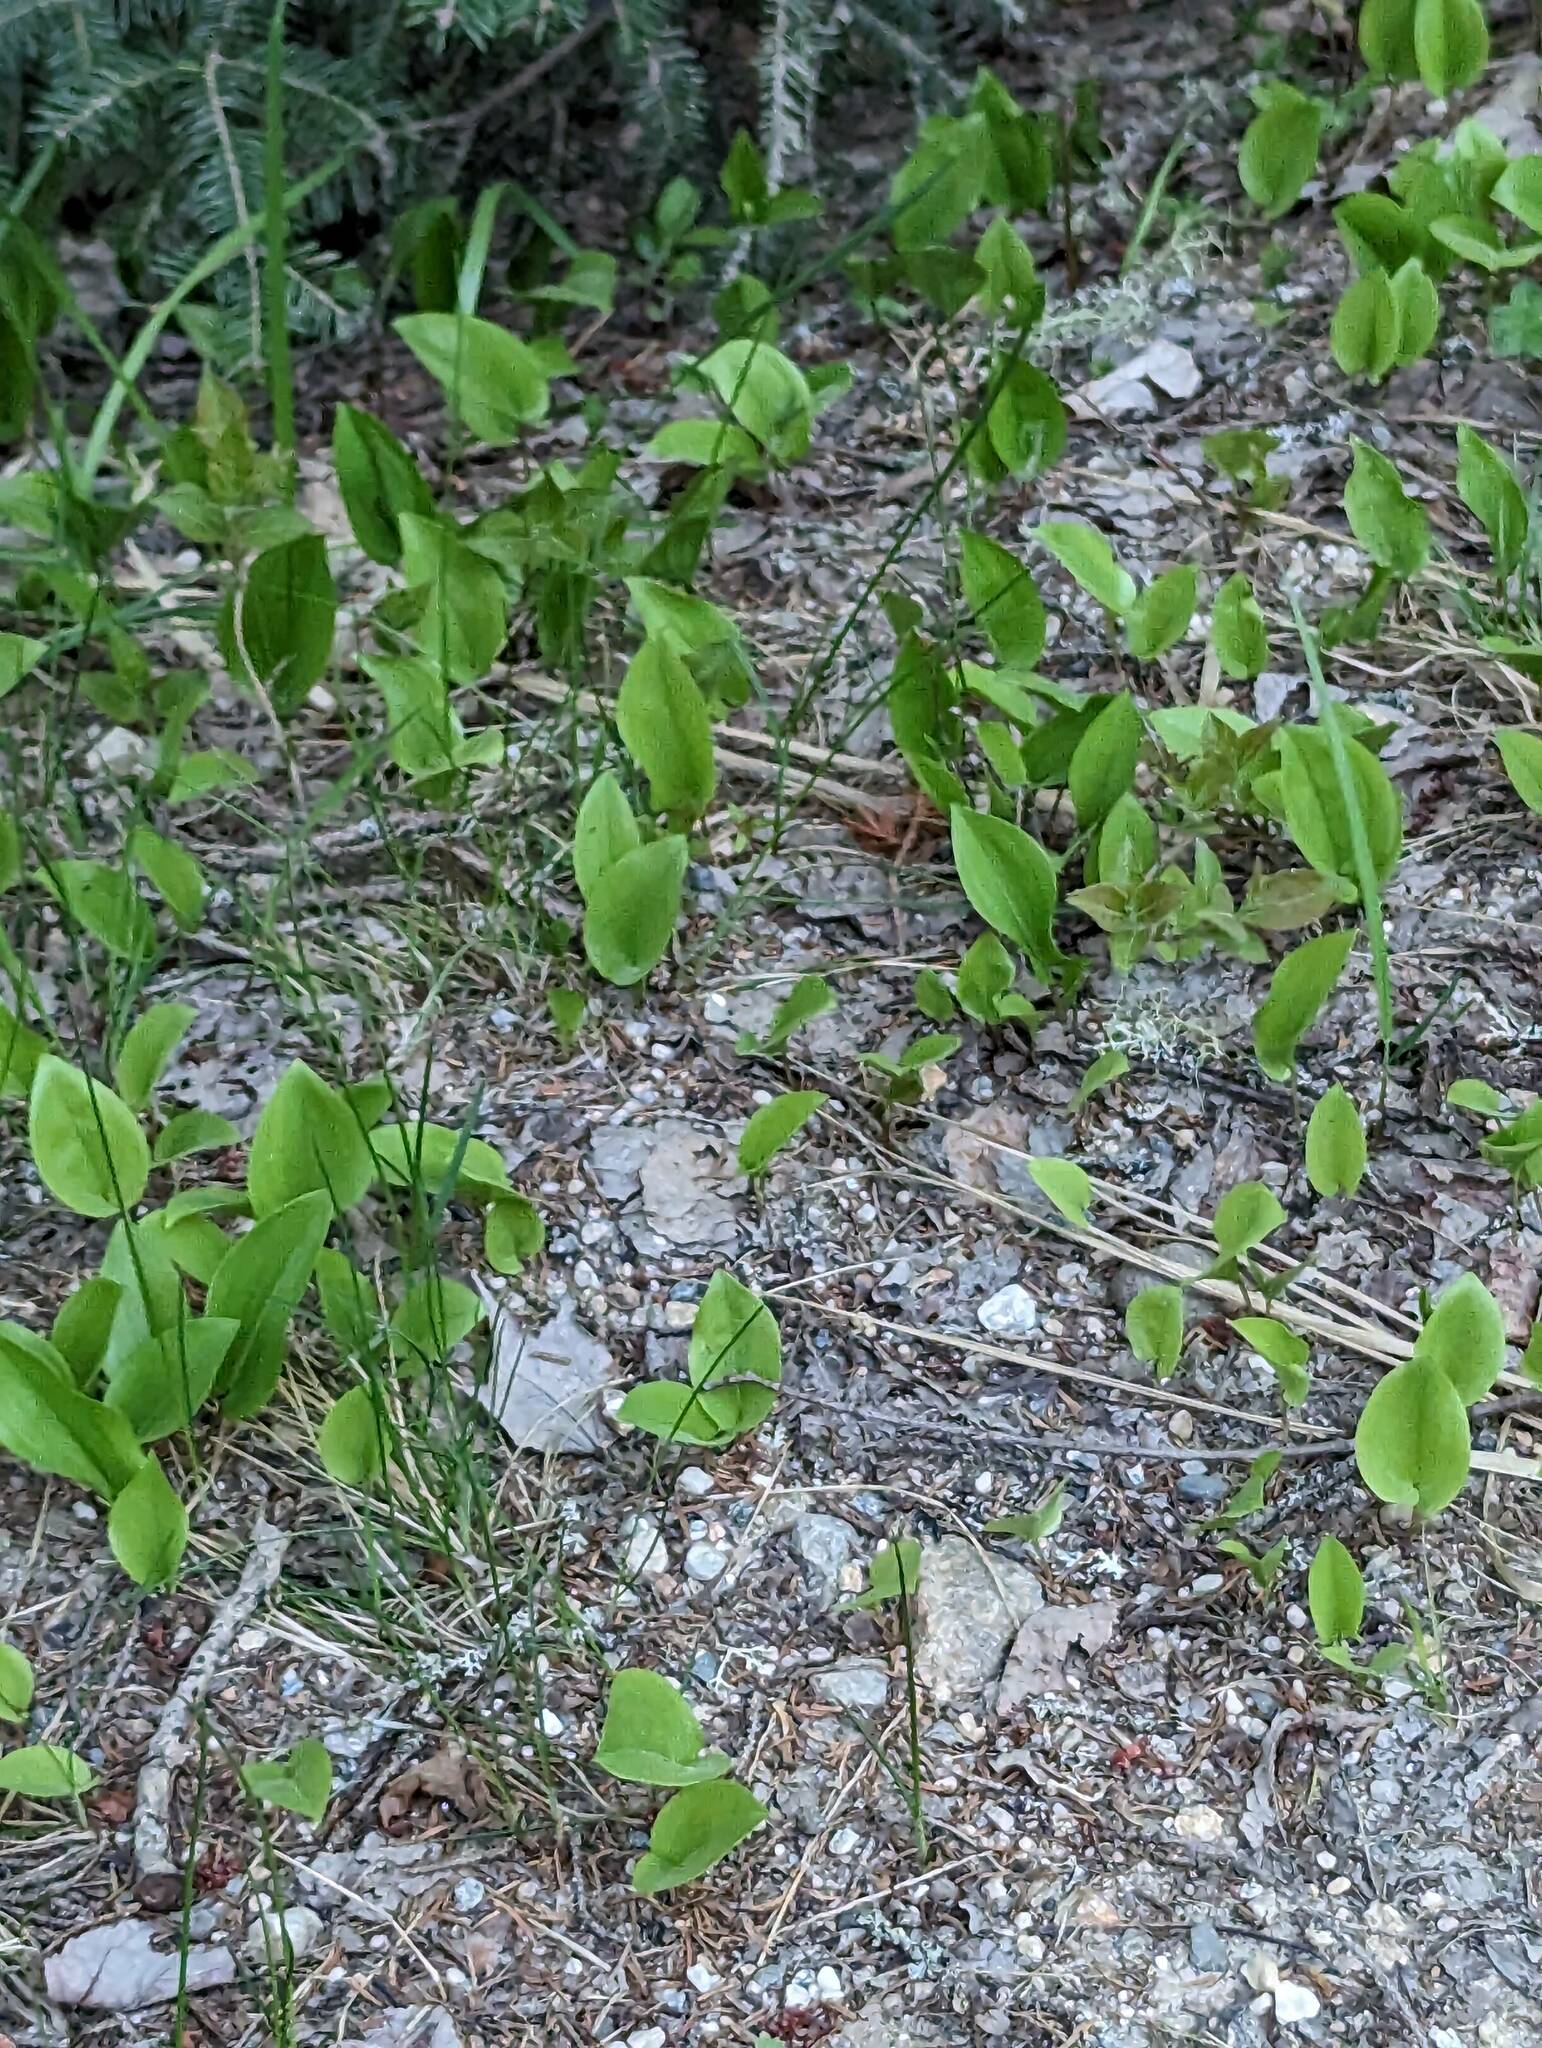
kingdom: Plantae
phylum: Tracheophyta
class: Liliopsida
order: Asparagales
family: Asparagaceae
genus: Maianthemum
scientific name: Maianthemum canadense
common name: False lily-of-the-valley
